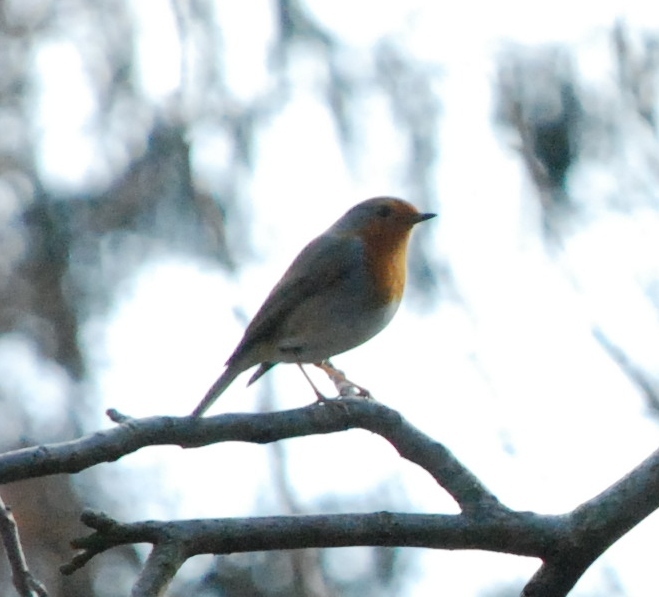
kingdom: Animalia
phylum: Chordata
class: Aves
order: Passeriformes
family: Muscicapidae
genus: Erithacus
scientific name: Erithacus rubecula
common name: European robin
